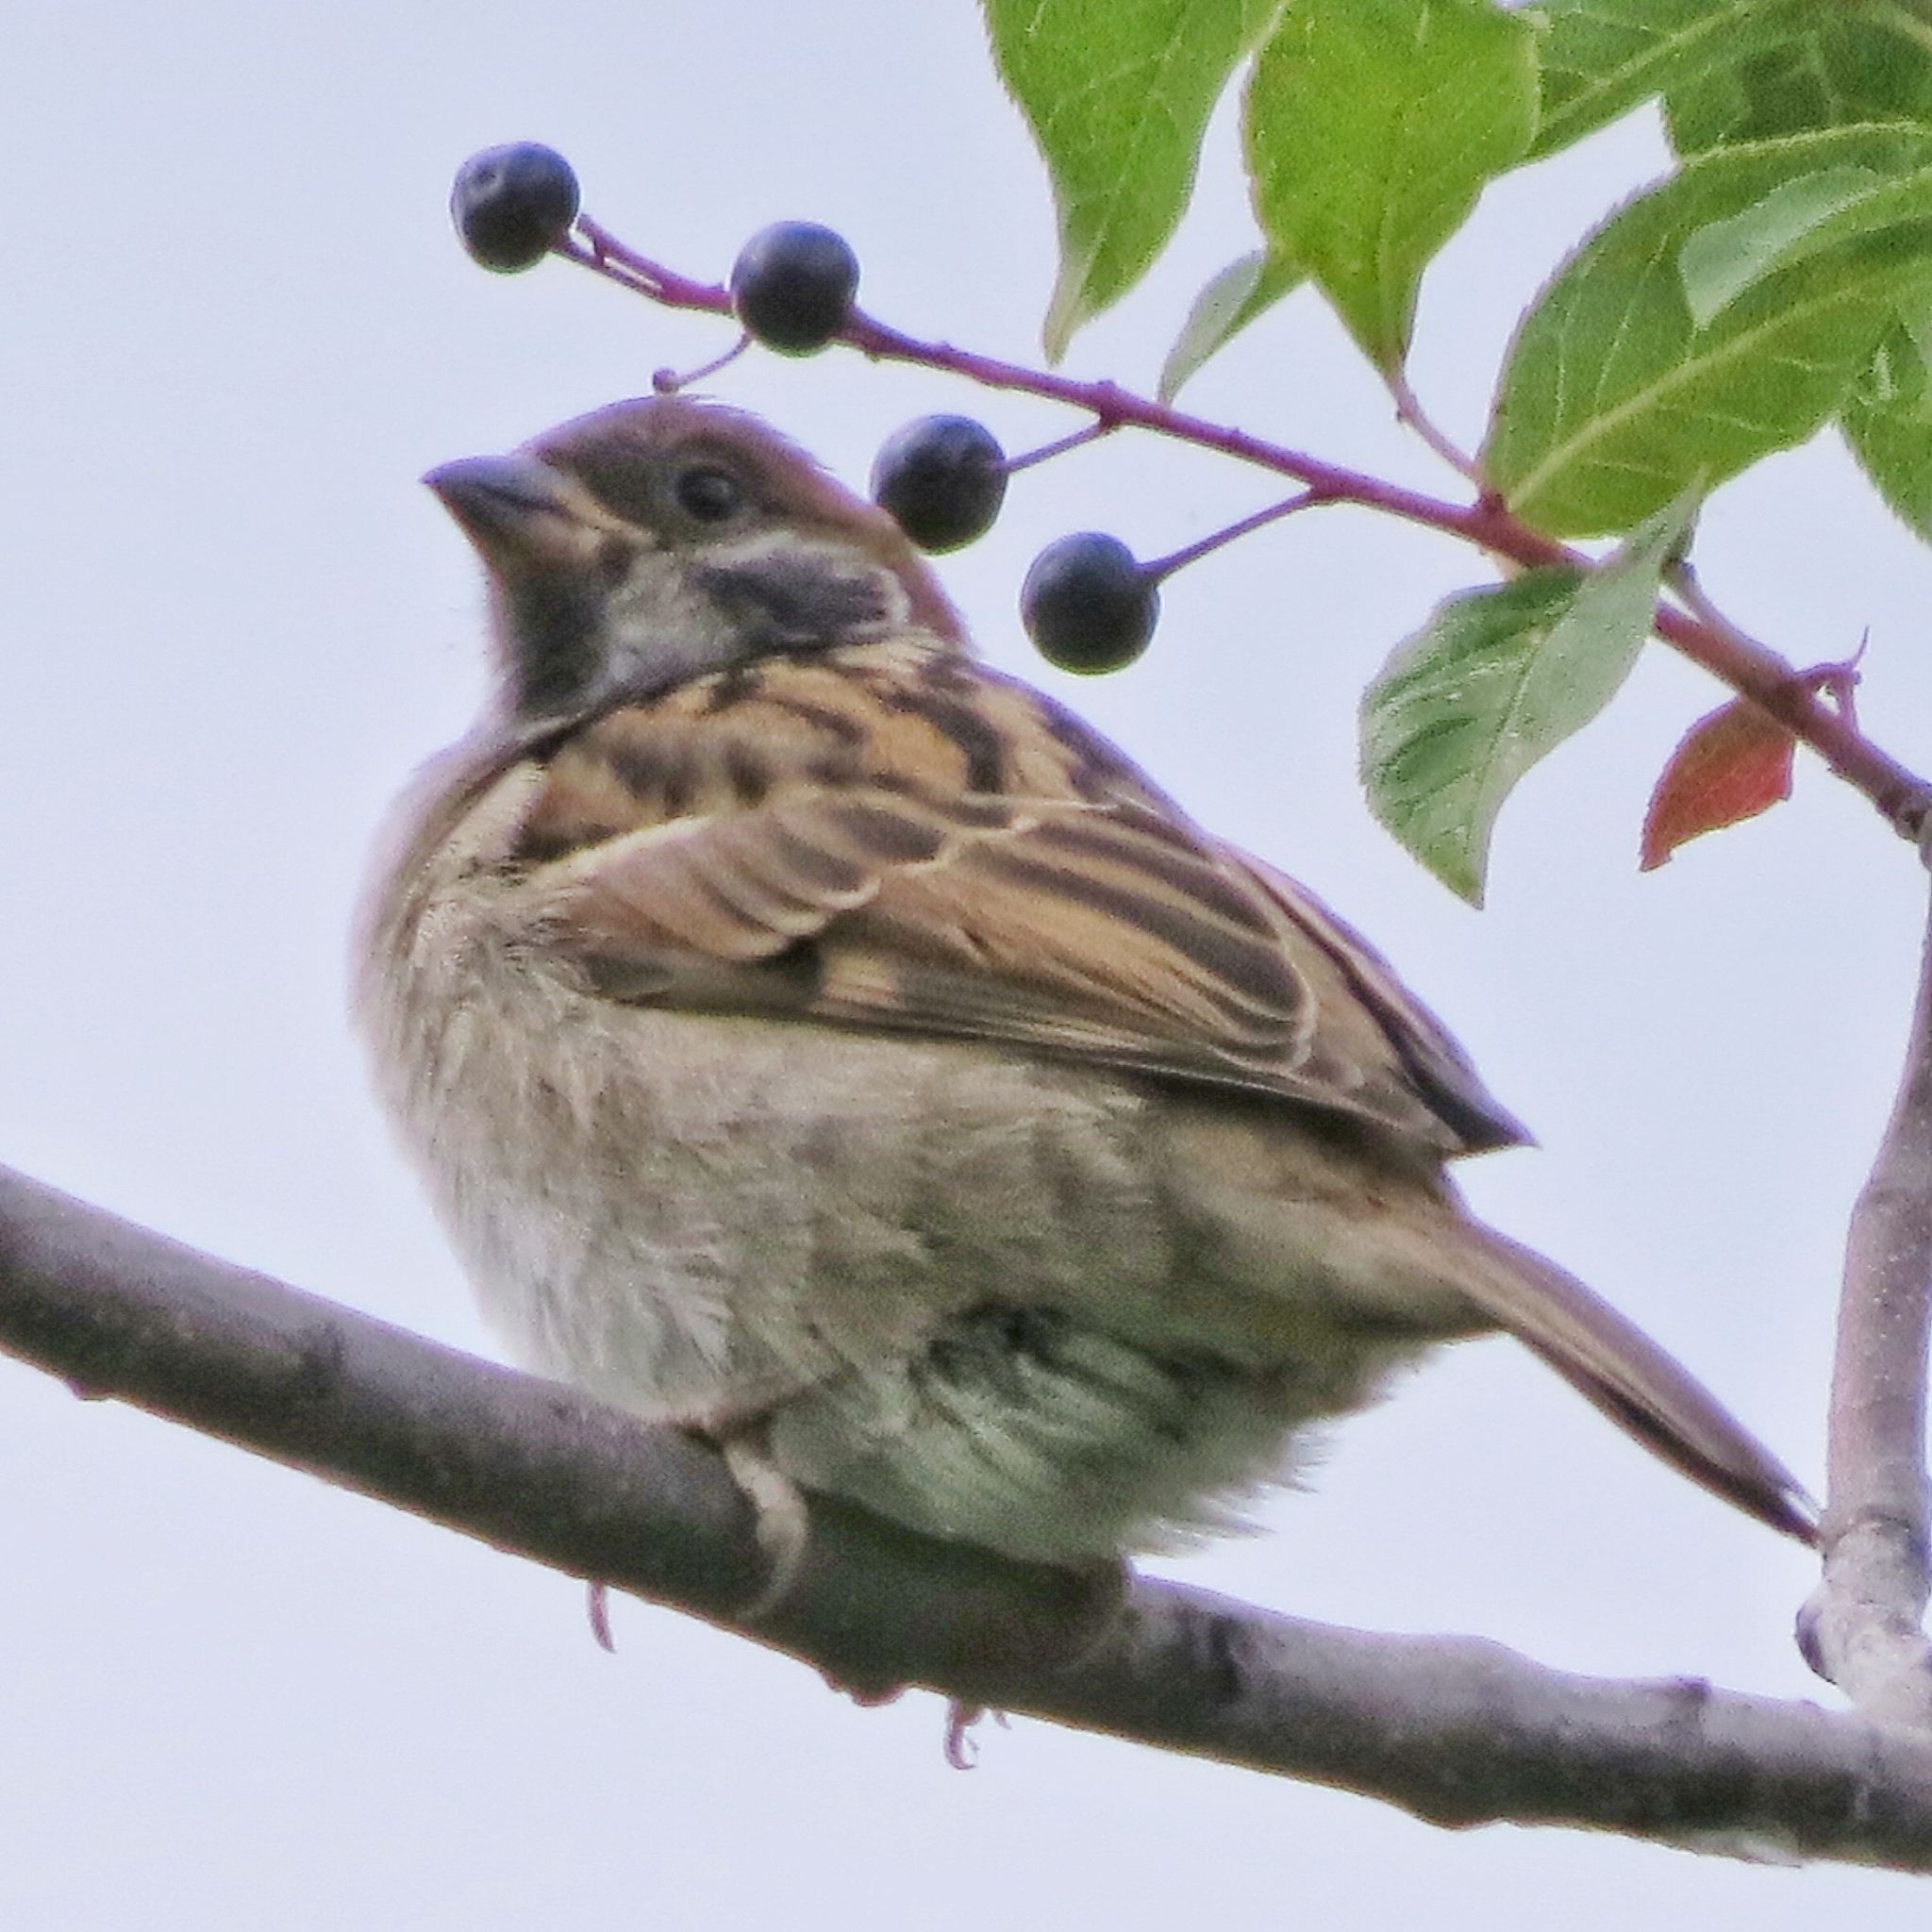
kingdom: Animalia
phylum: Chordata
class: Aves
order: Passeriformes
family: Passeridae
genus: Passer
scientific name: Passer montanus
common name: Eurasian tree sparrow
